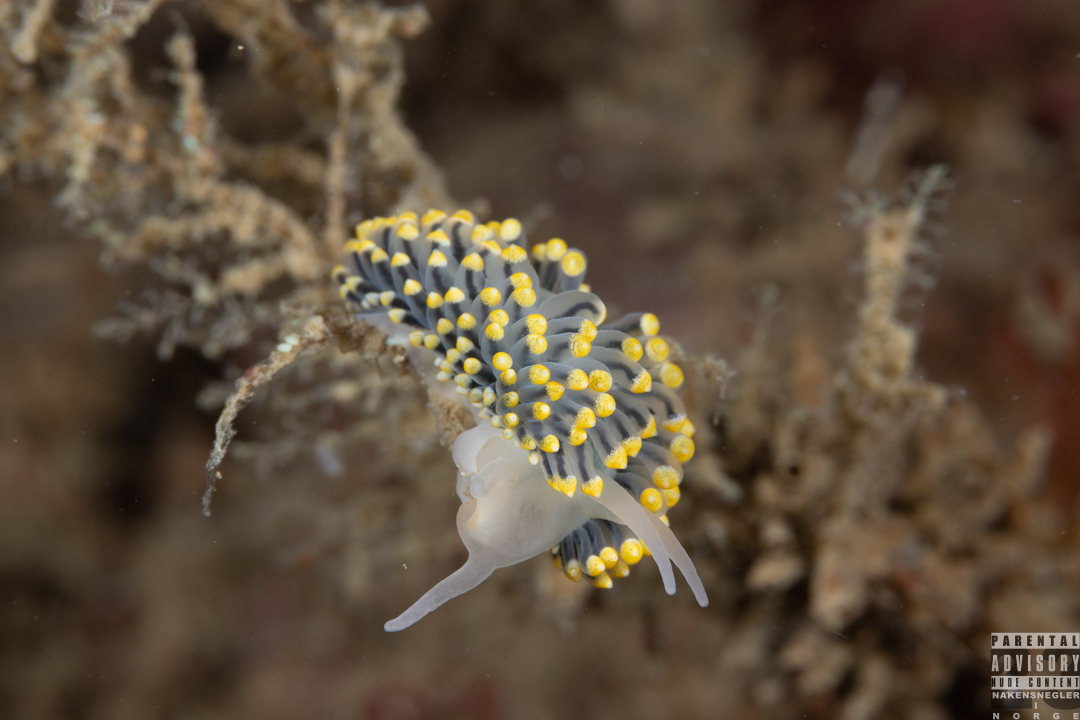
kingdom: Animalia
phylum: Mollusca
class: Gastropoda
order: Nudibranchia
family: Eubranchidae
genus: Eubranchus
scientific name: Eubranchus tricolor
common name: Painted balloon aeolis
